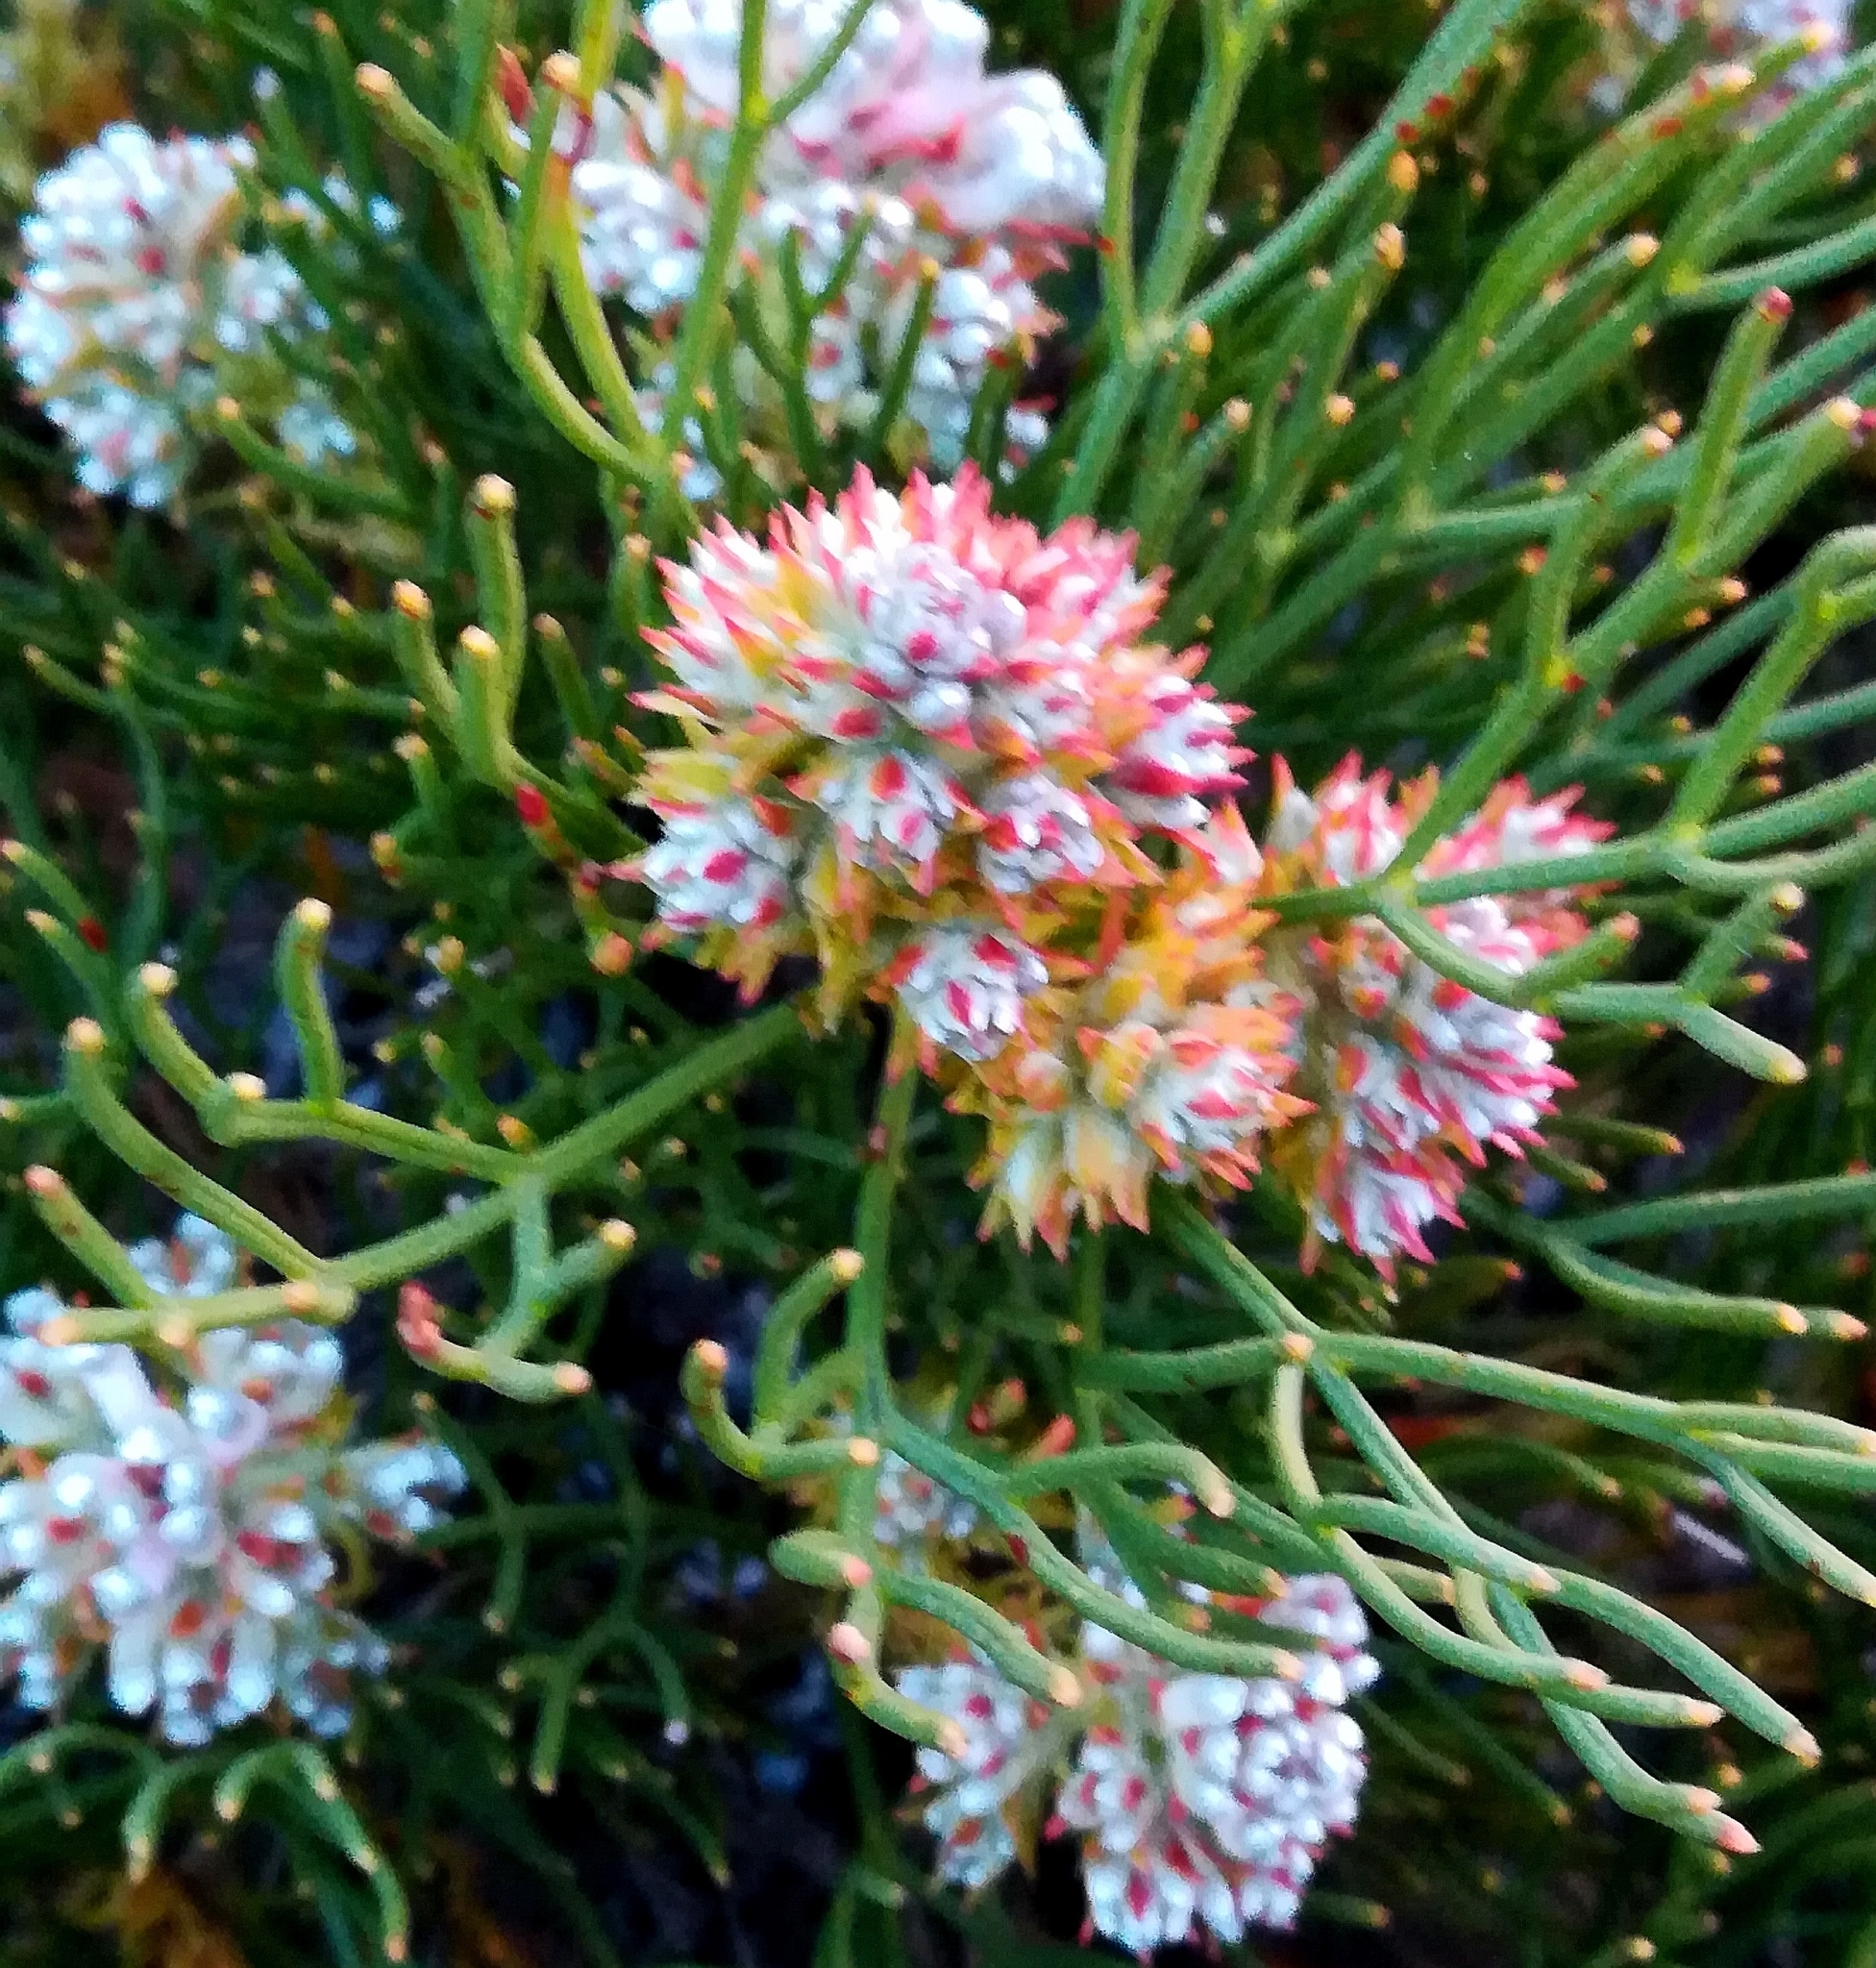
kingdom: Plantae
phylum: Tracheophyta
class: Magnoliopsida
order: Proteales
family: Proteaceae
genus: Serruria
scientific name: Serruria ascendens
